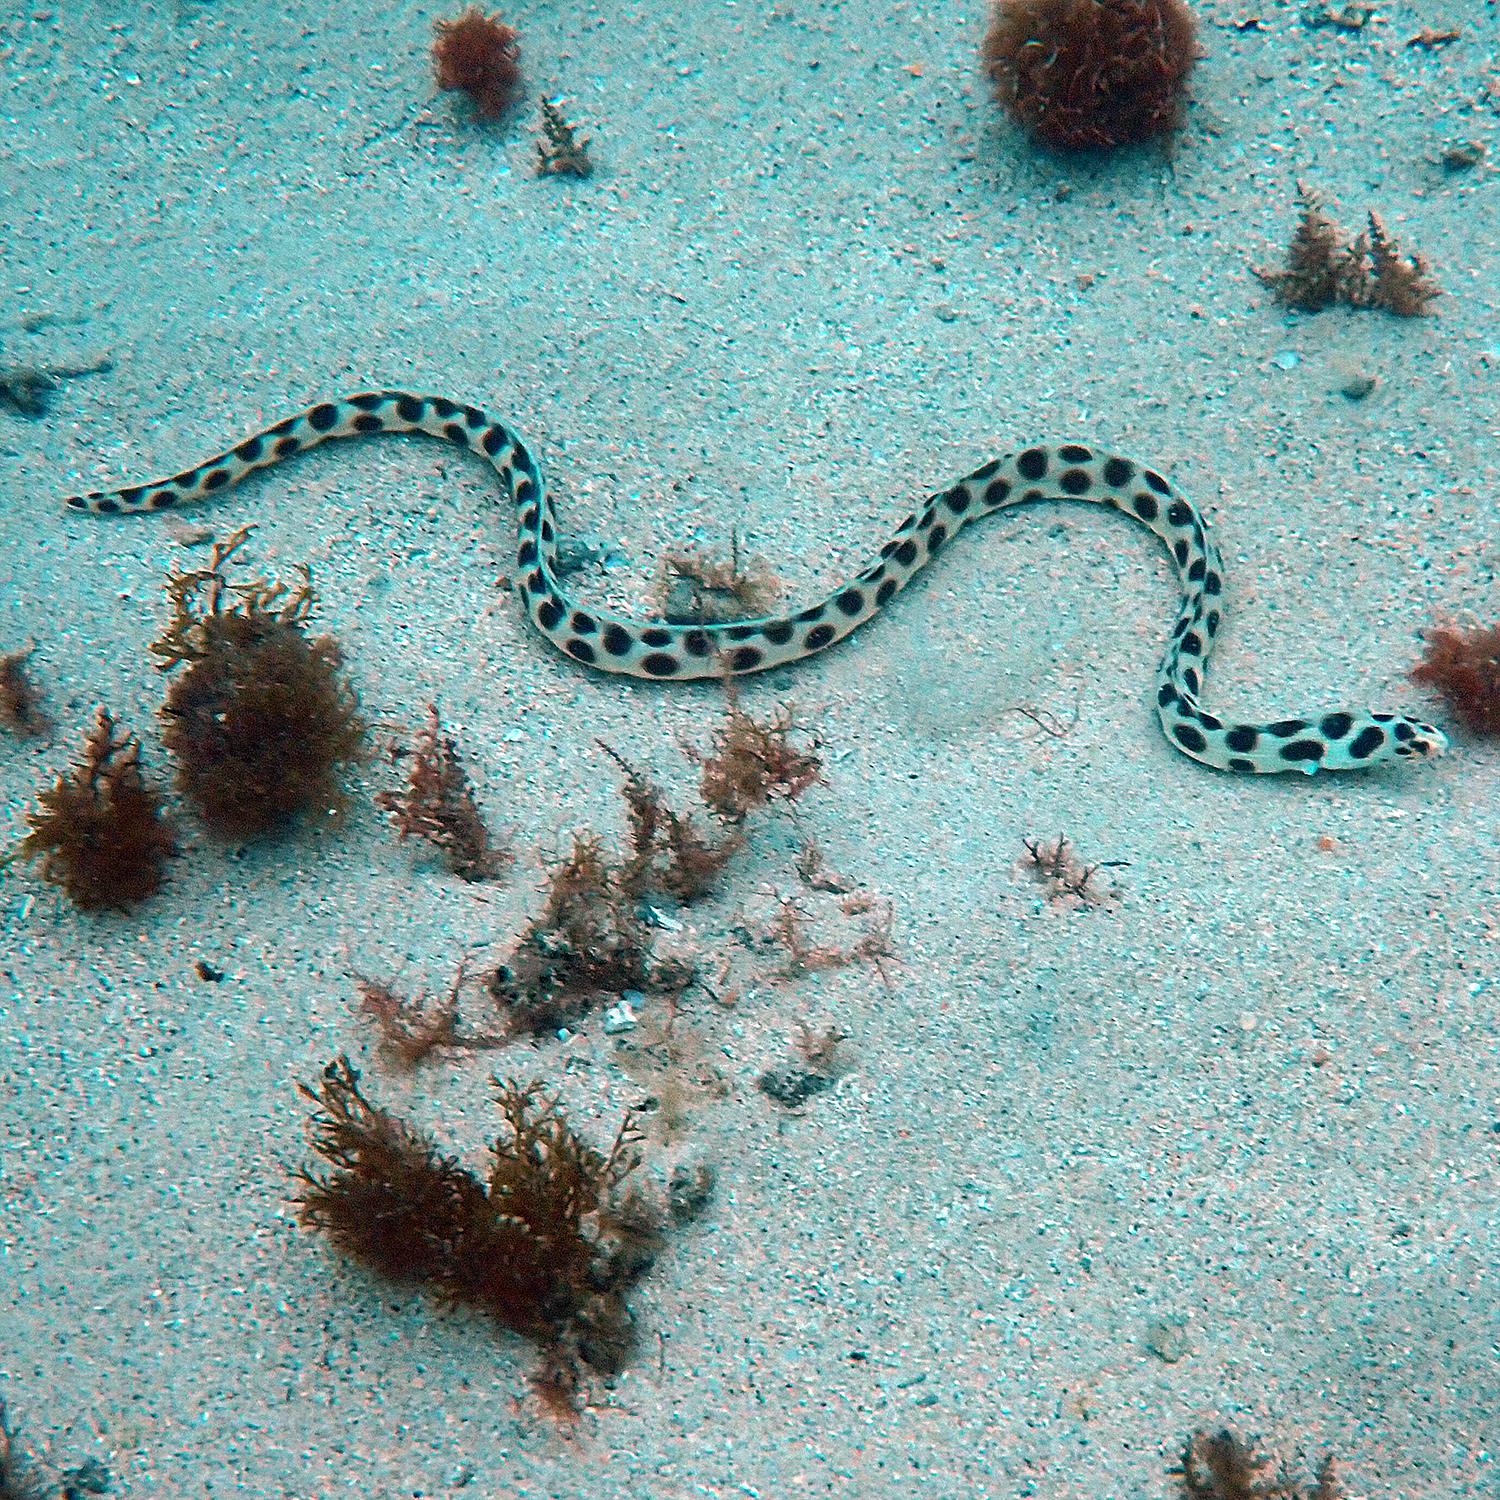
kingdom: Animalia
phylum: Chordata
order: Anguilliformes
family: Ophichthidae
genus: Myrichthys
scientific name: Myrichthys maculosus
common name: Spotted snake eel
